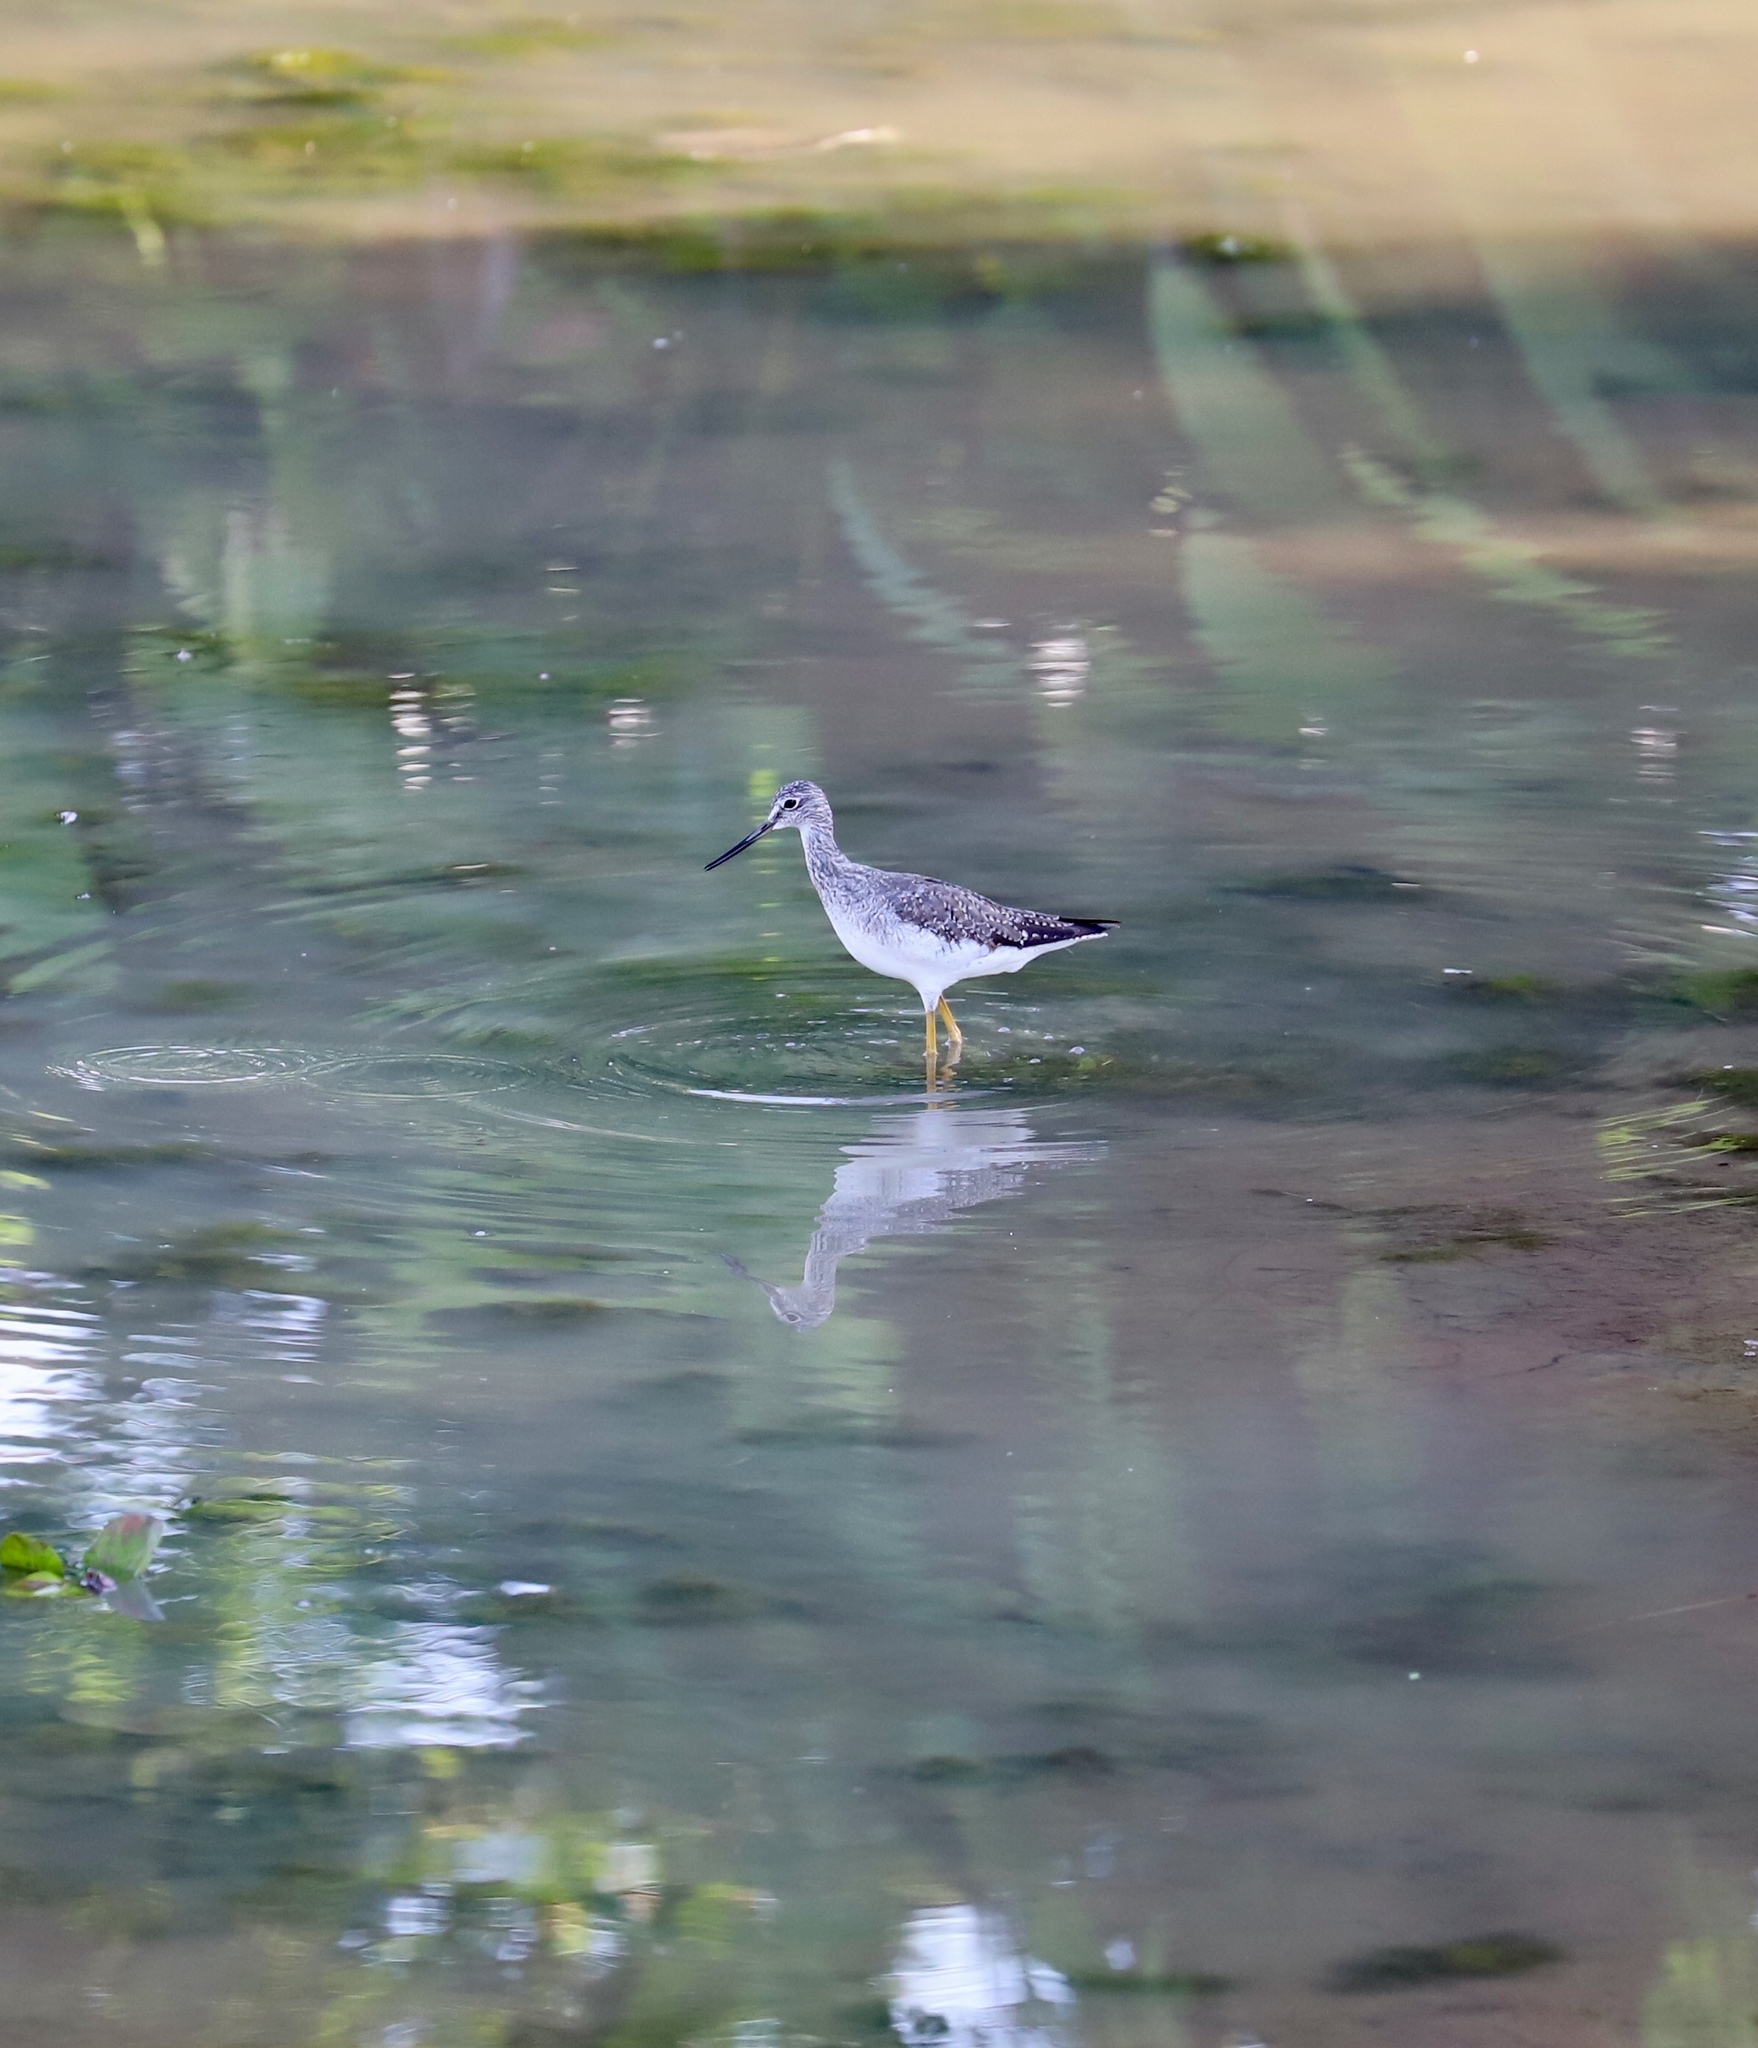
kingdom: Animalia
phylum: Chordata
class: Aves
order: Charadriiformes
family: Scolopacidae
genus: Tringa
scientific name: Tringa melanoleuca
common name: Greater yellowlegs
